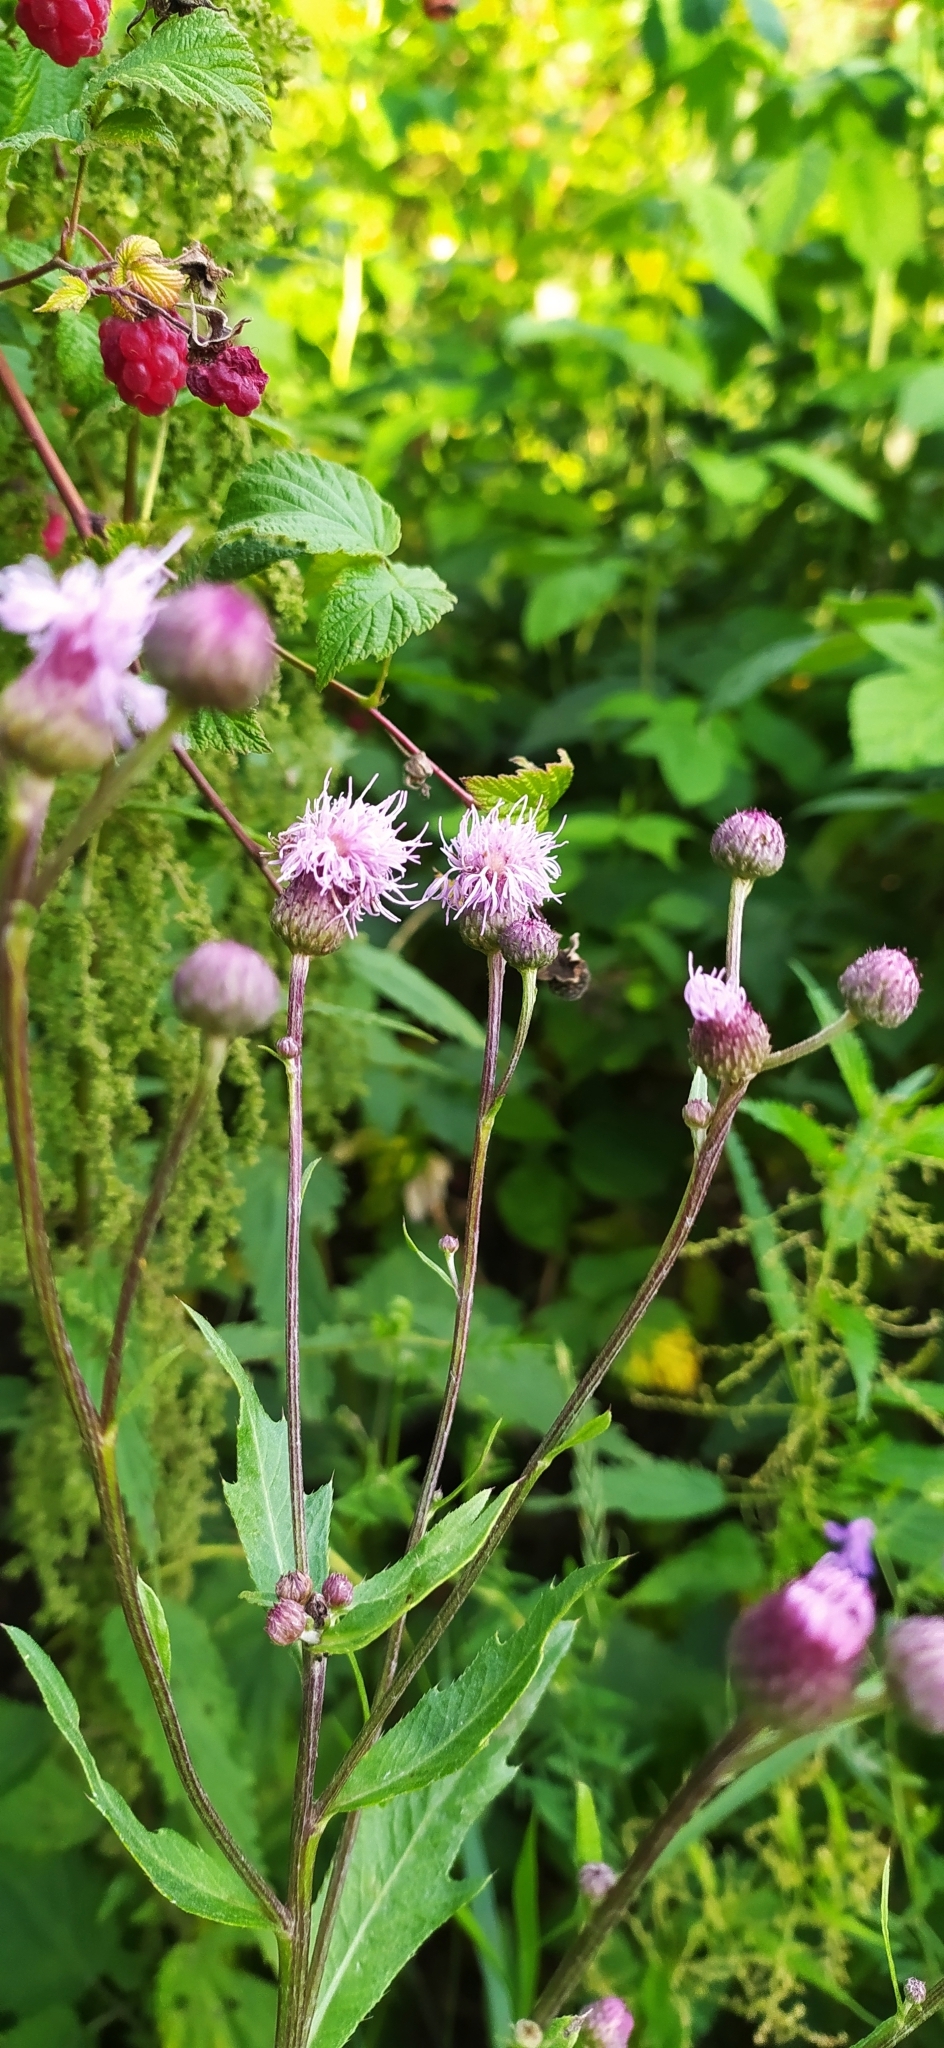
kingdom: Plantae
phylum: Tracheophyta
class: Magnoliopsida
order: Asterales
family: Asteraceae
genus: Cirsium
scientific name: Cirsium arvense
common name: Creeping thistle
